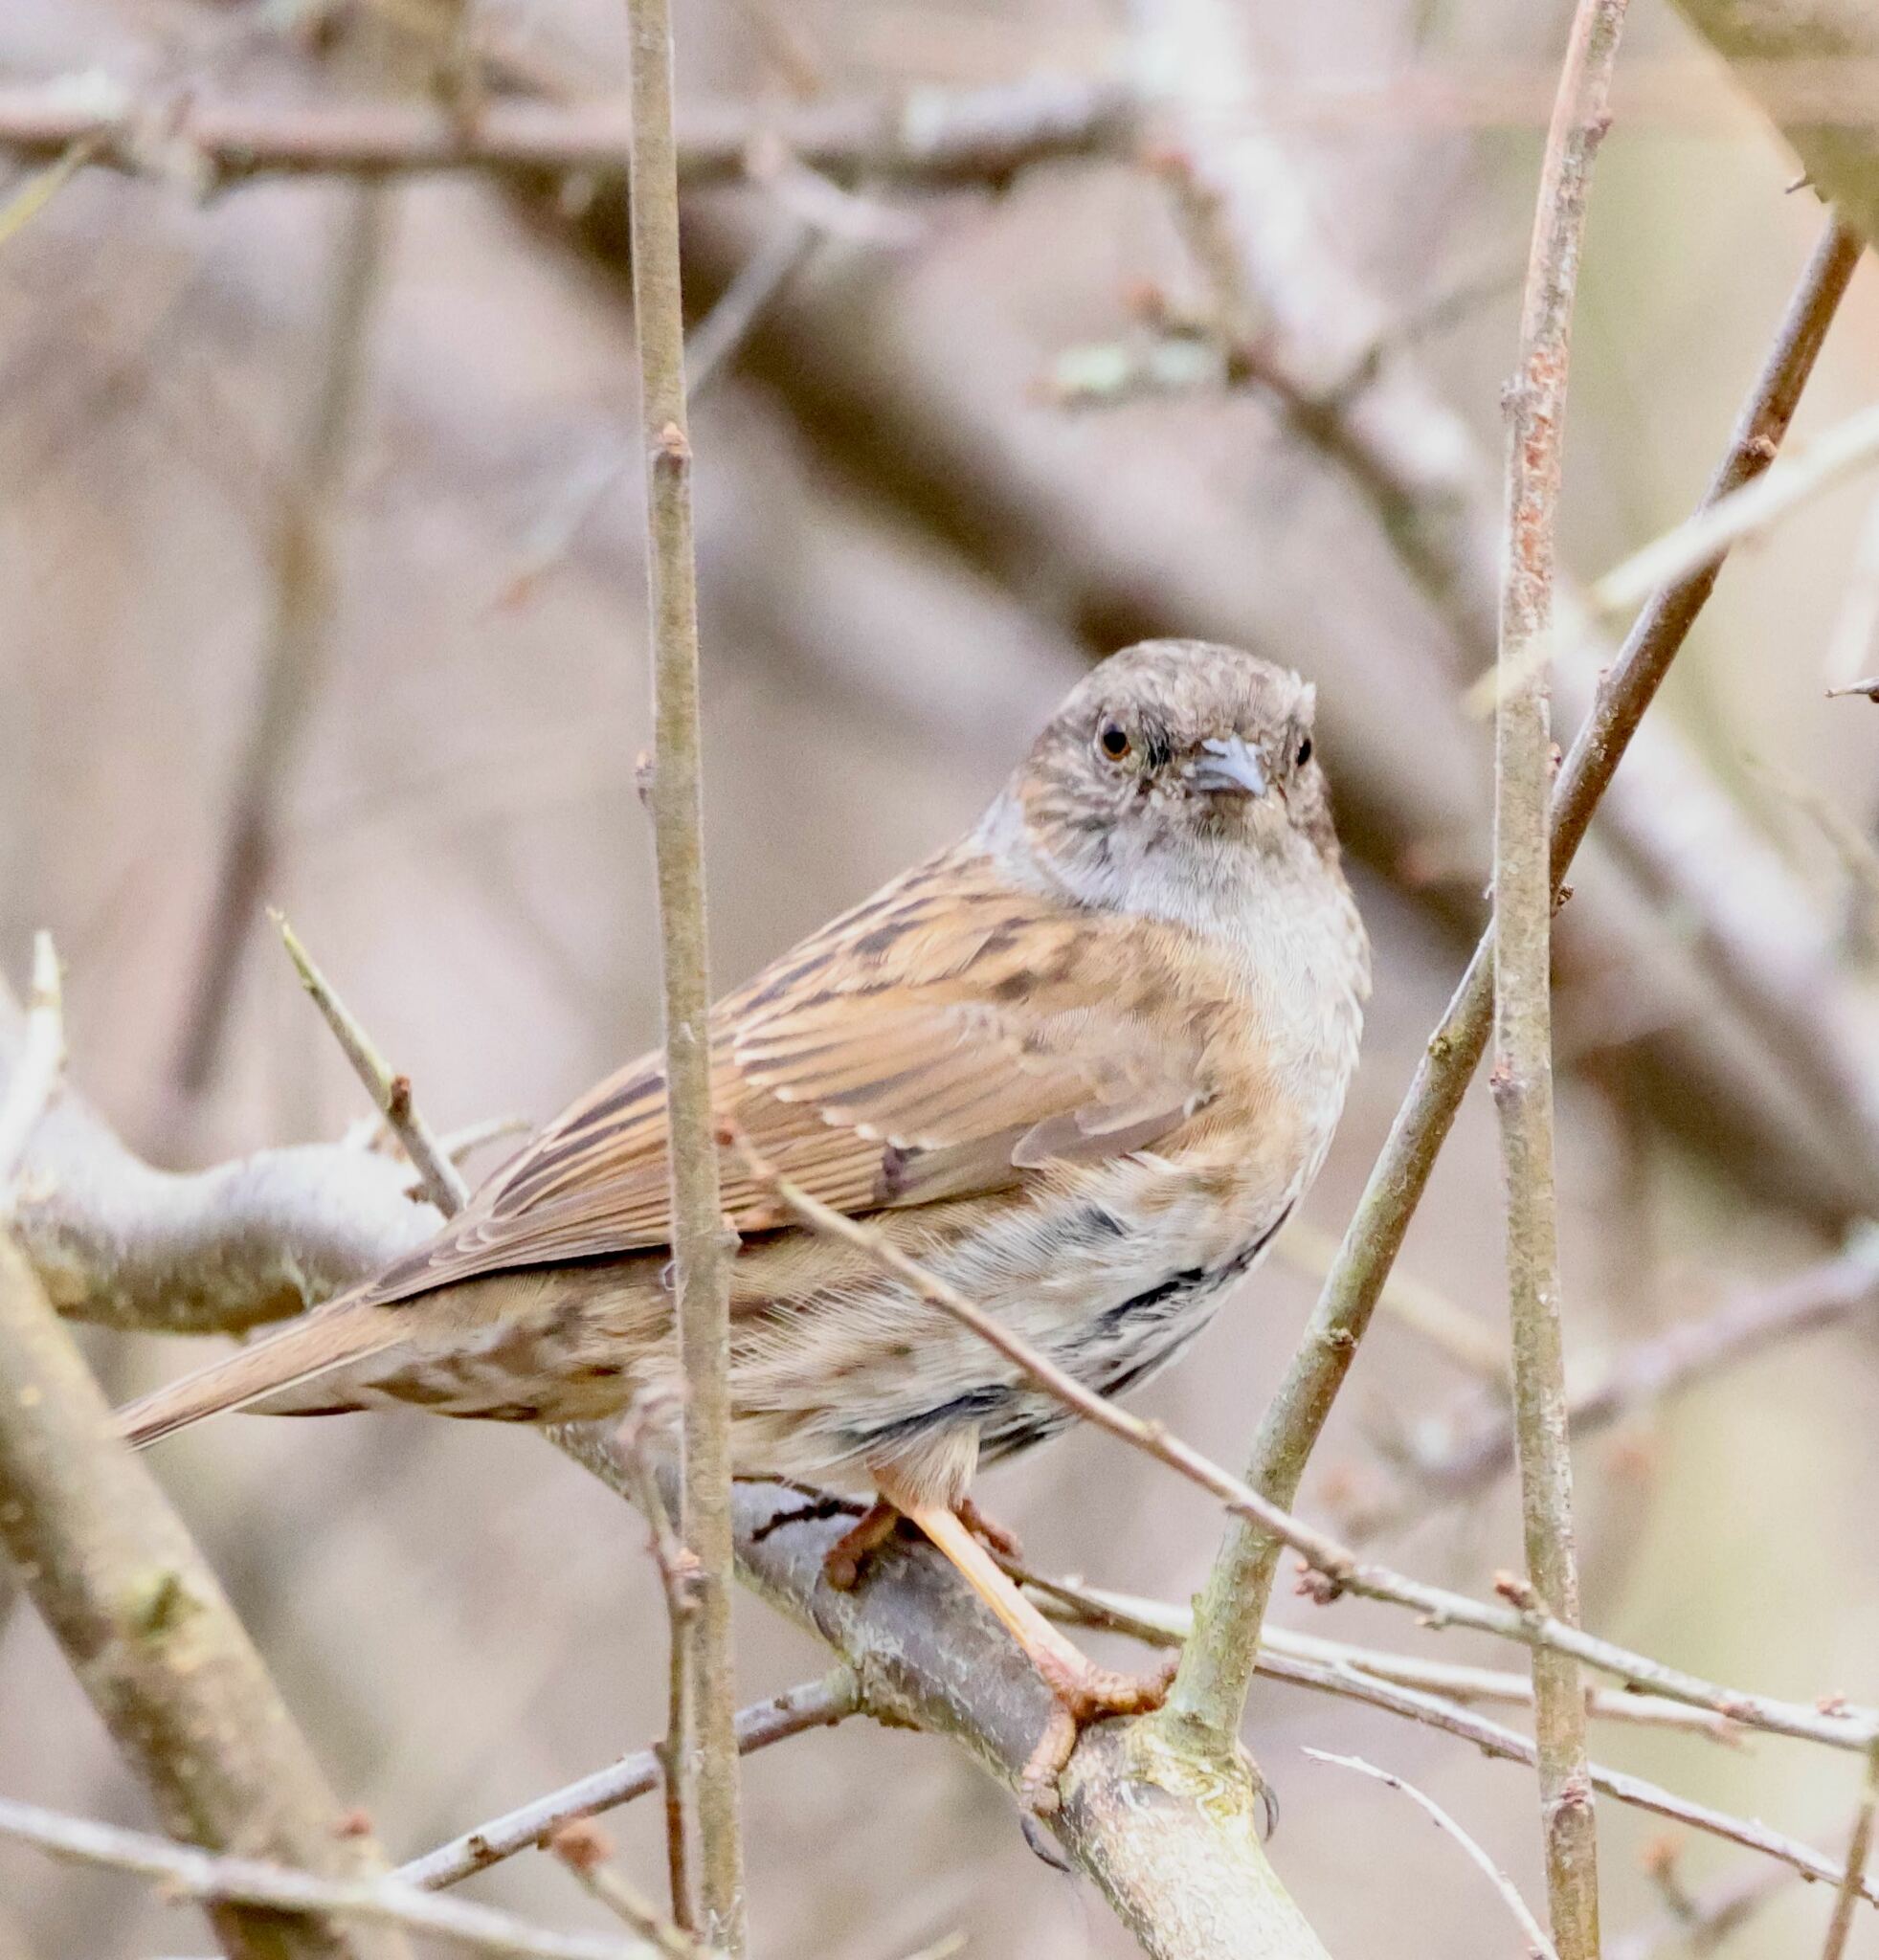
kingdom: Animalia
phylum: Chordata
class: Aves
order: Passeriformes
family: Prunellidae
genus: Prunella
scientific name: Prunella modularis
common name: Dunnock
